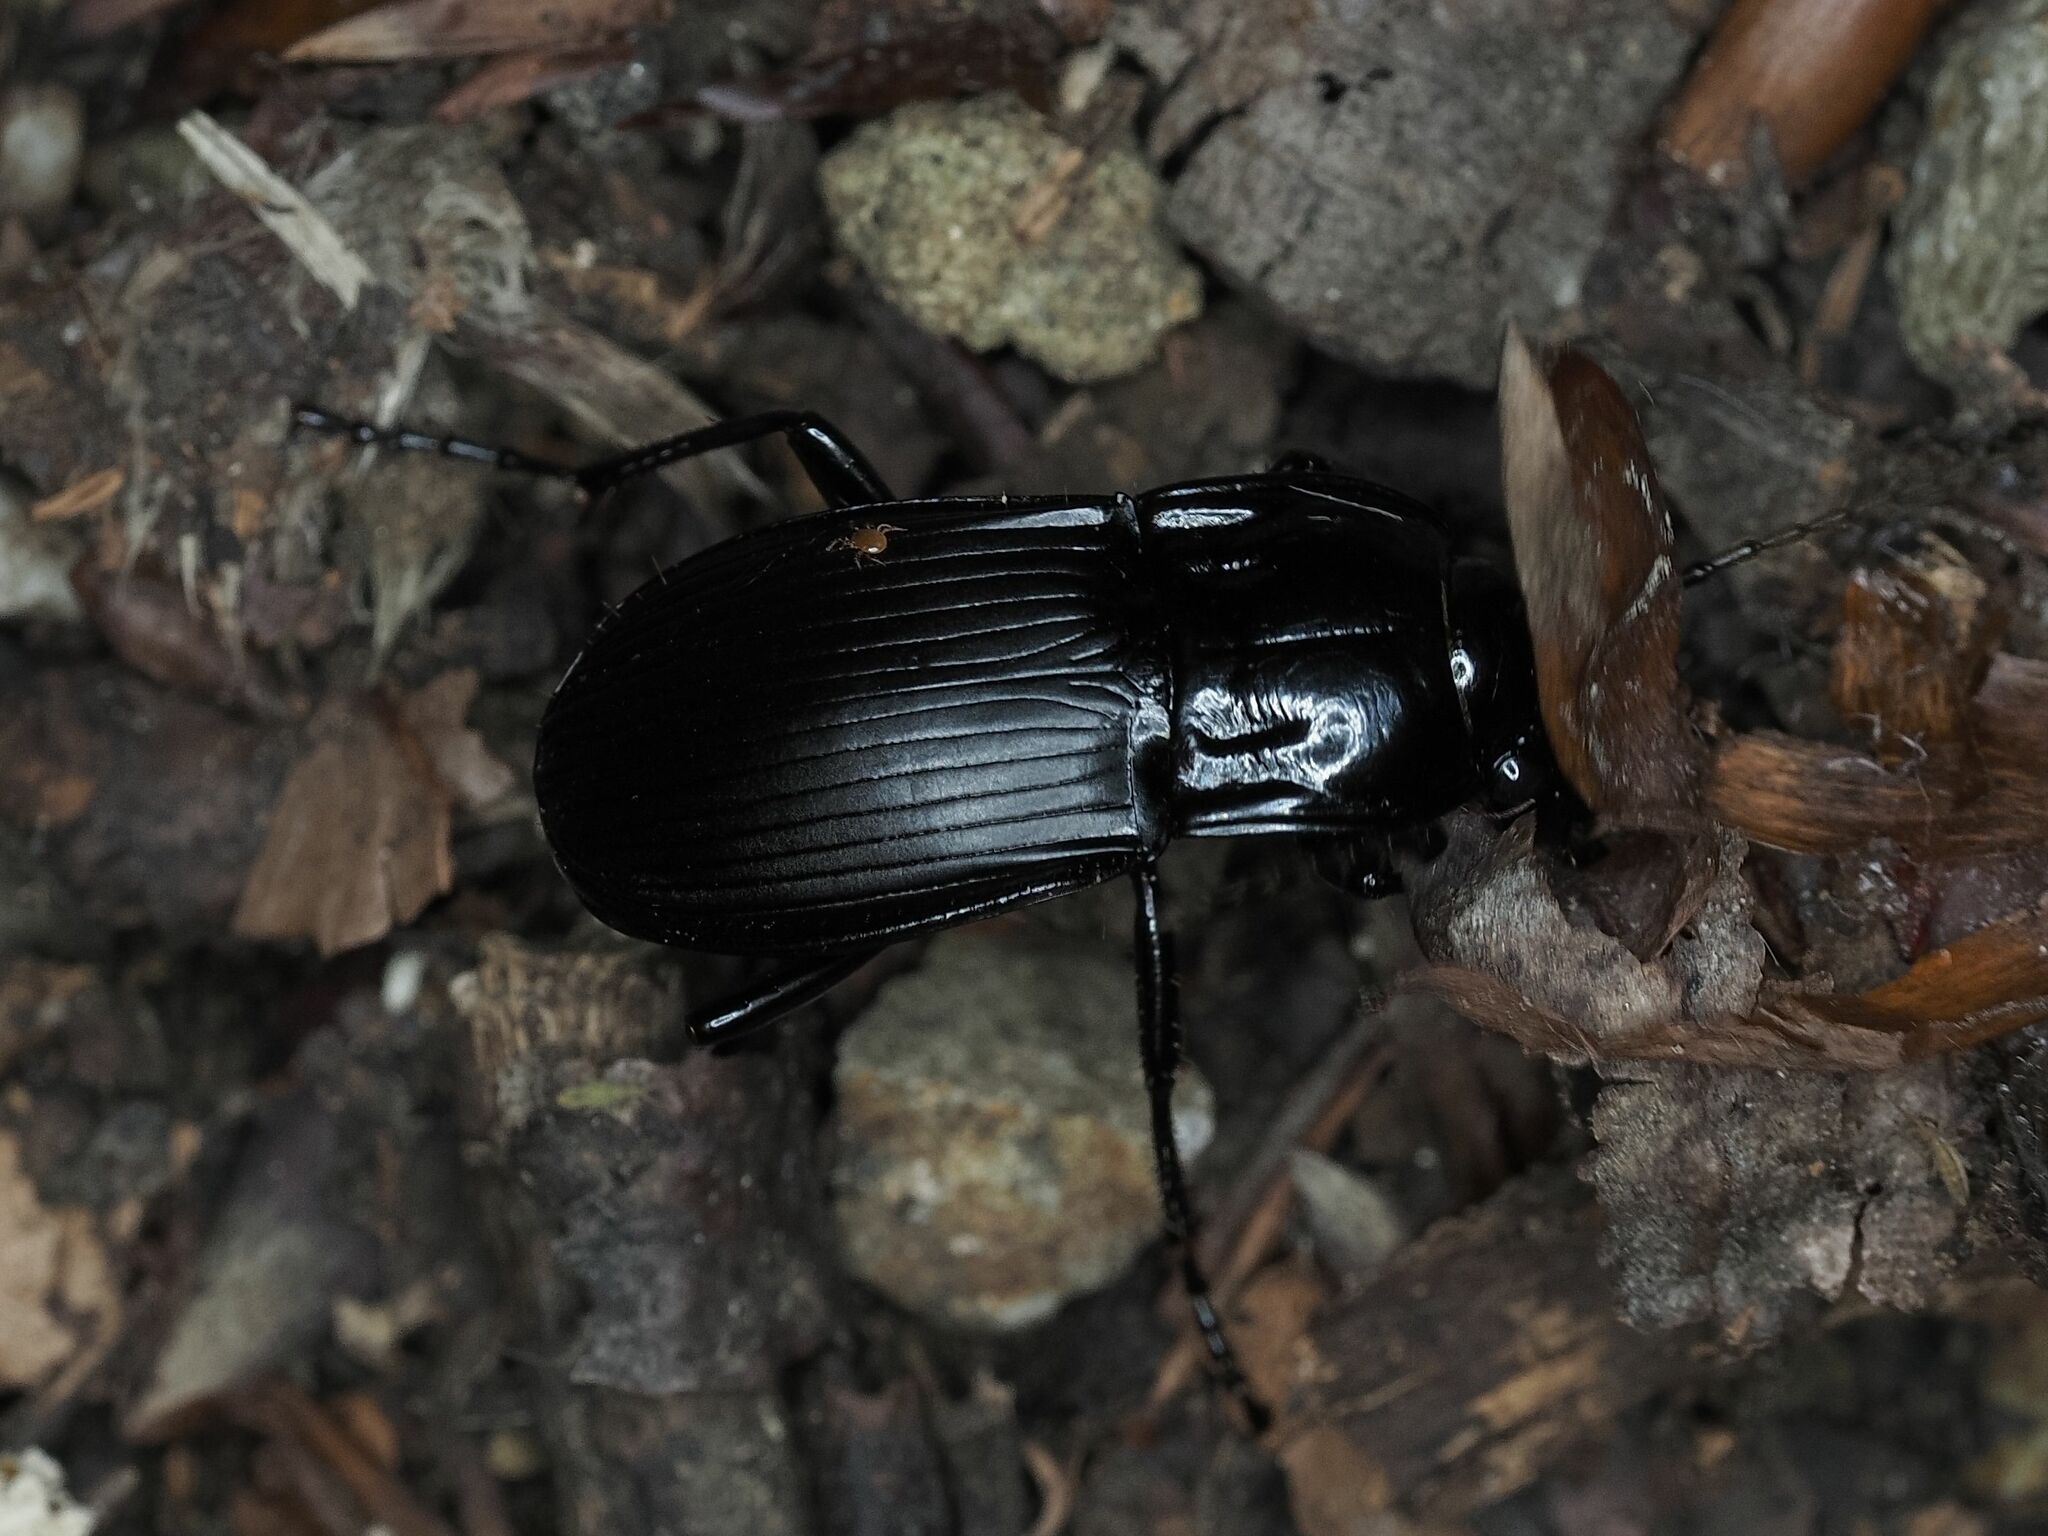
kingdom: Animalia
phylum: Arthropoda
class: Insecta
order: Coleoptera
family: Carabidae
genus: Abax
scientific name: Abax parallelepipedus
